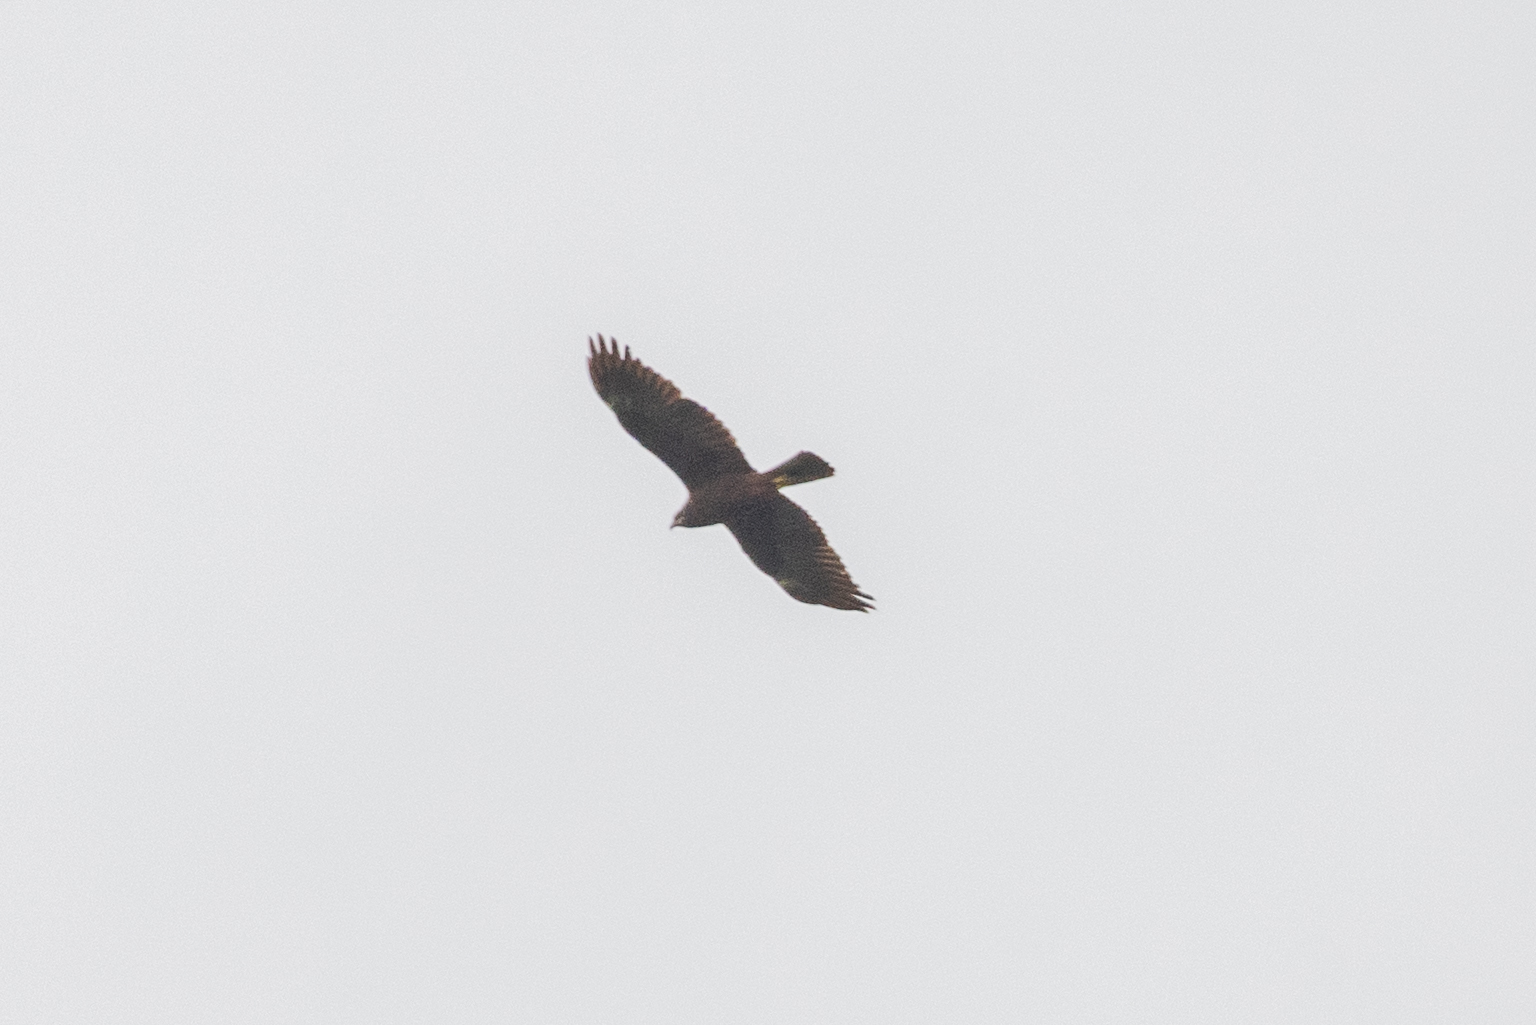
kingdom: Animalia
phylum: Chordata
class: Aves
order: Accipitriformes
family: Accipitridae
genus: Circus
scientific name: Circus aeruginosus
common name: Western marsh harrier
